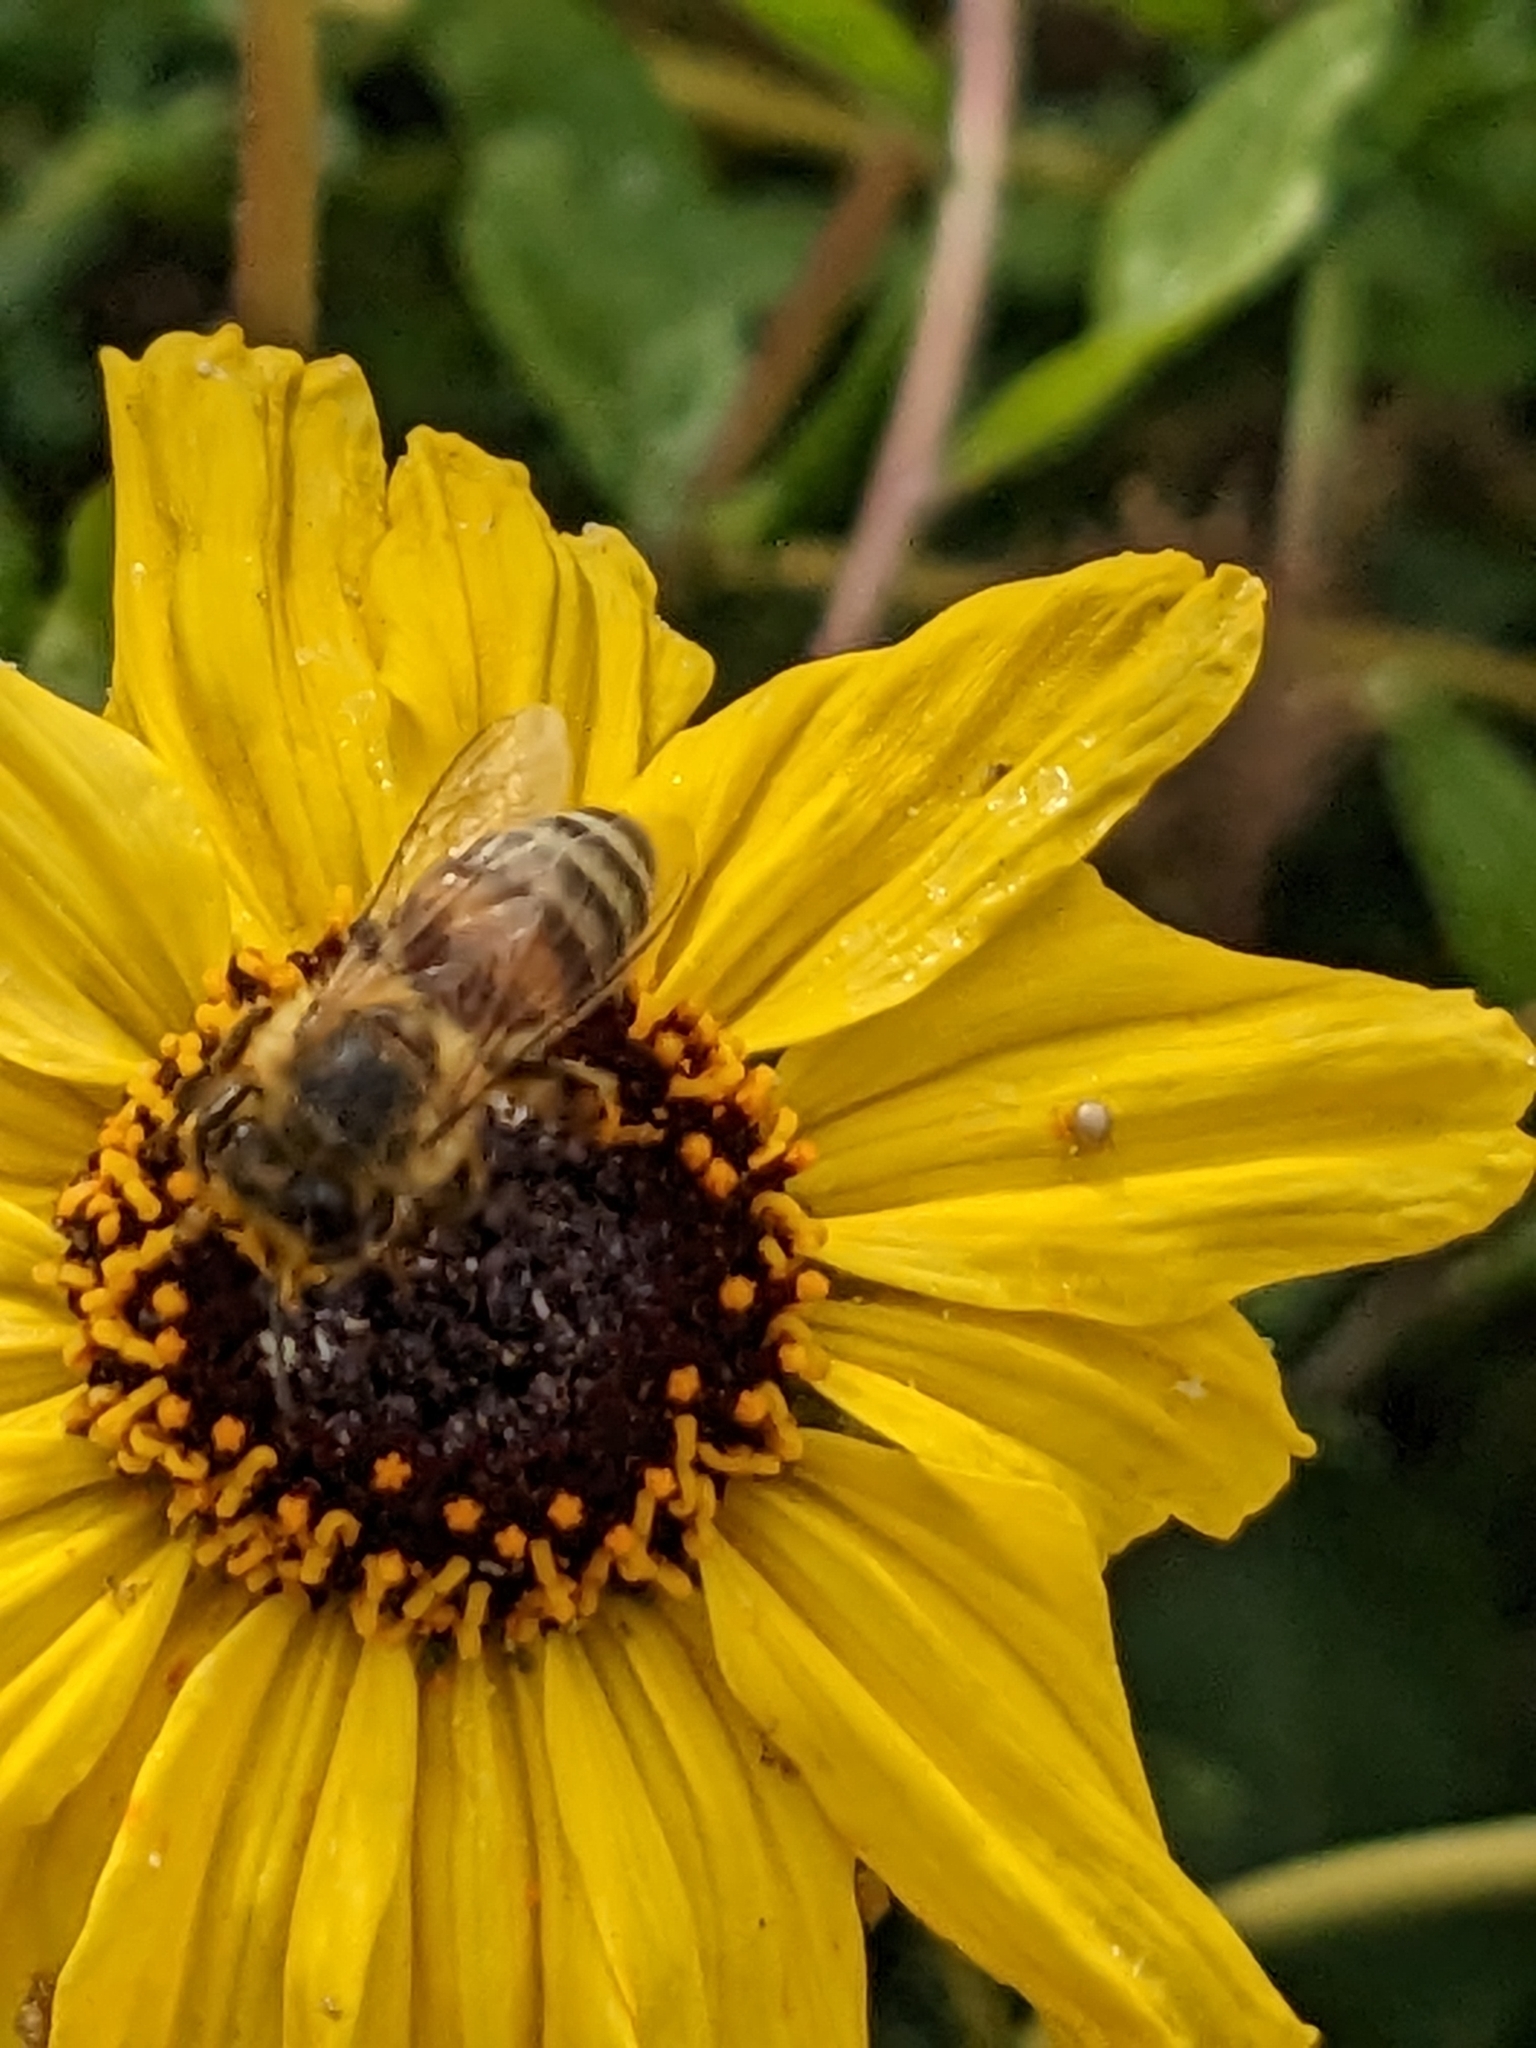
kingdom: Animalia
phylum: Arthropoda
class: Insecta
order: Hymenoptera
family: Apidae
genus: Apis
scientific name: Apis mellifera
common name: Honey bee
